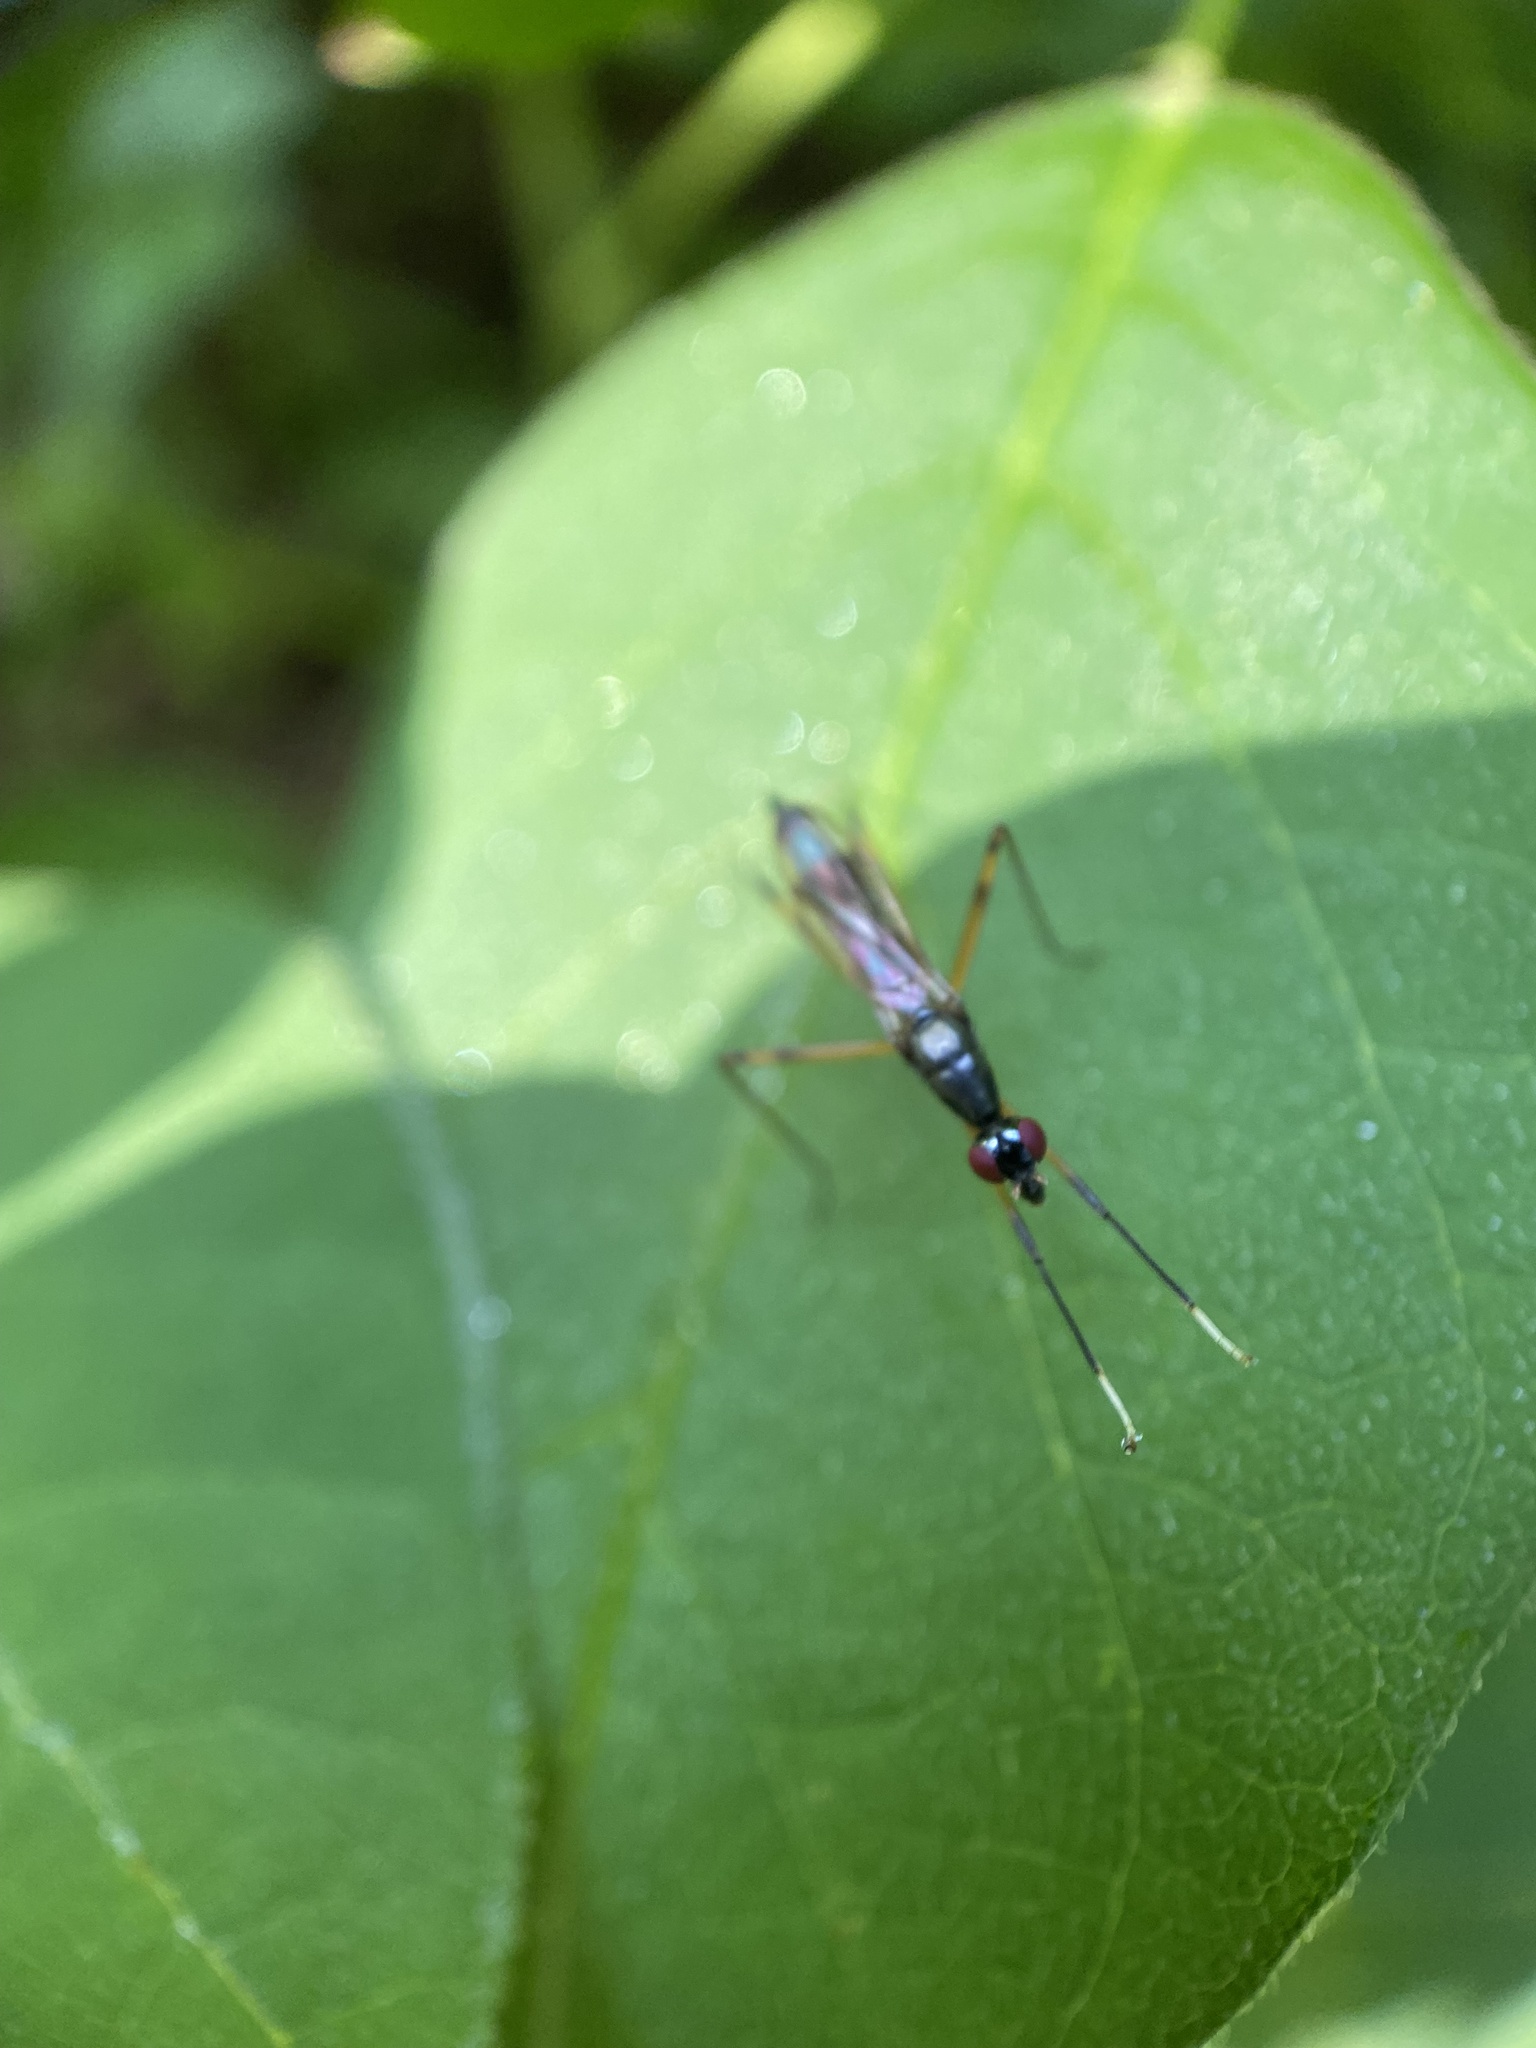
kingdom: Animalia
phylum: Arthropoda
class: Insecta
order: Diptera
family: Micropezidae
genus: Rainieria
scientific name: Rainieria antennaepes
